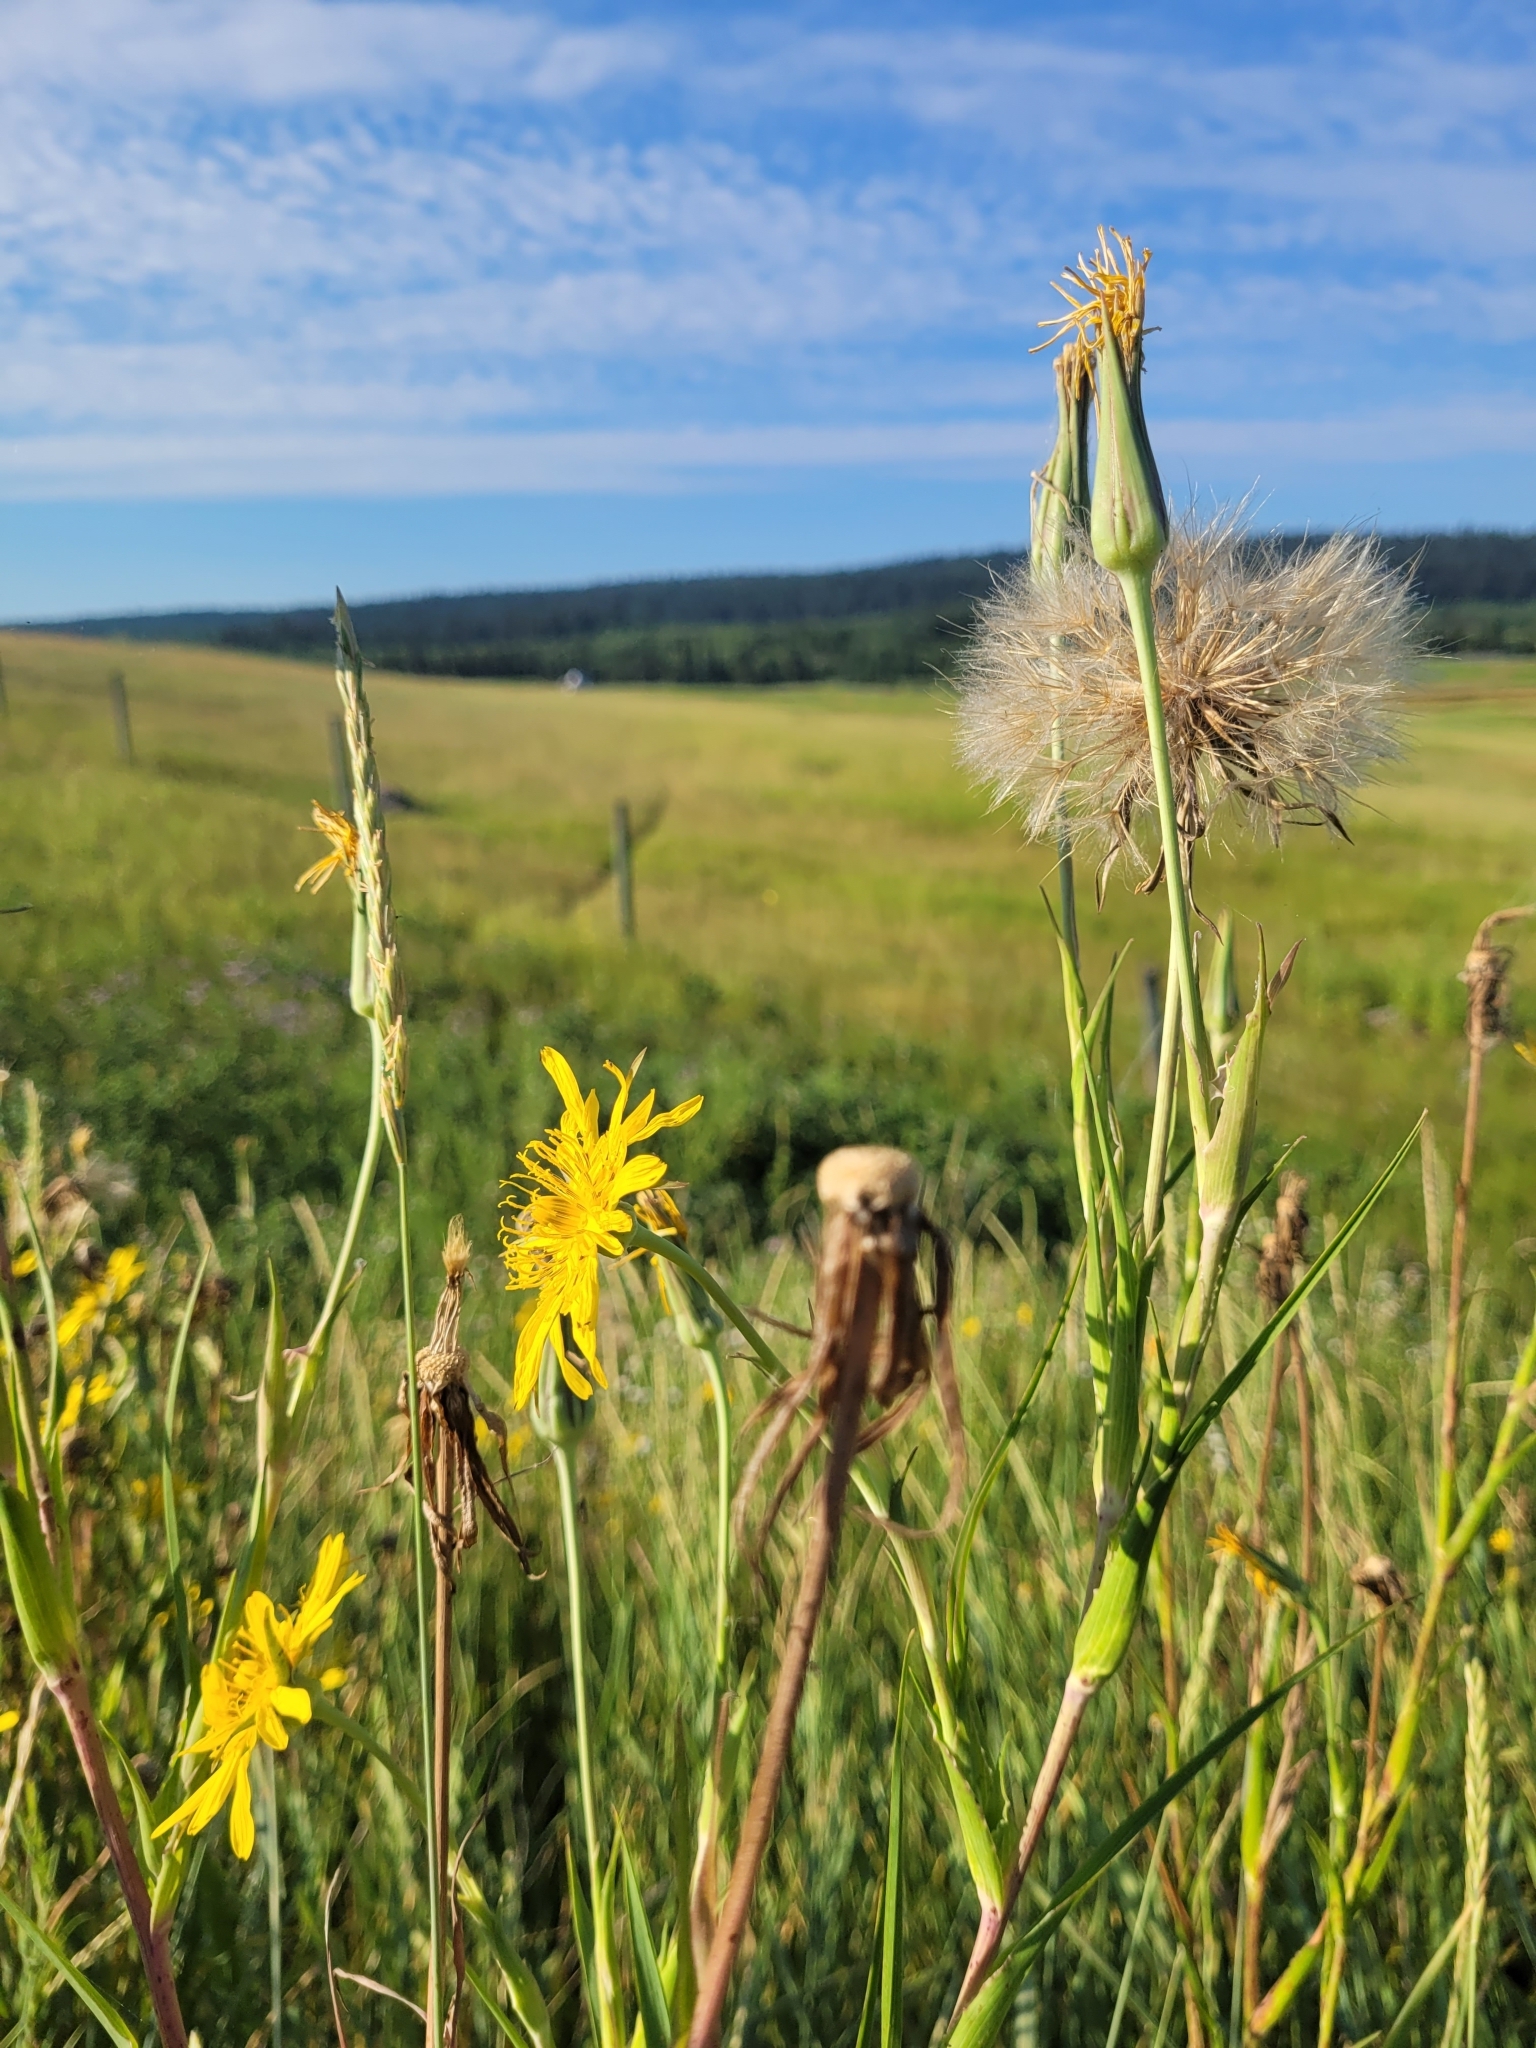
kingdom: Plantae
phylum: Tracheophyta
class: Magnoliopsida
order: Asterales
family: Asteraceae
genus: Tragopogon
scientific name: Tragopogon pratensis
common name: Goat's-beard
